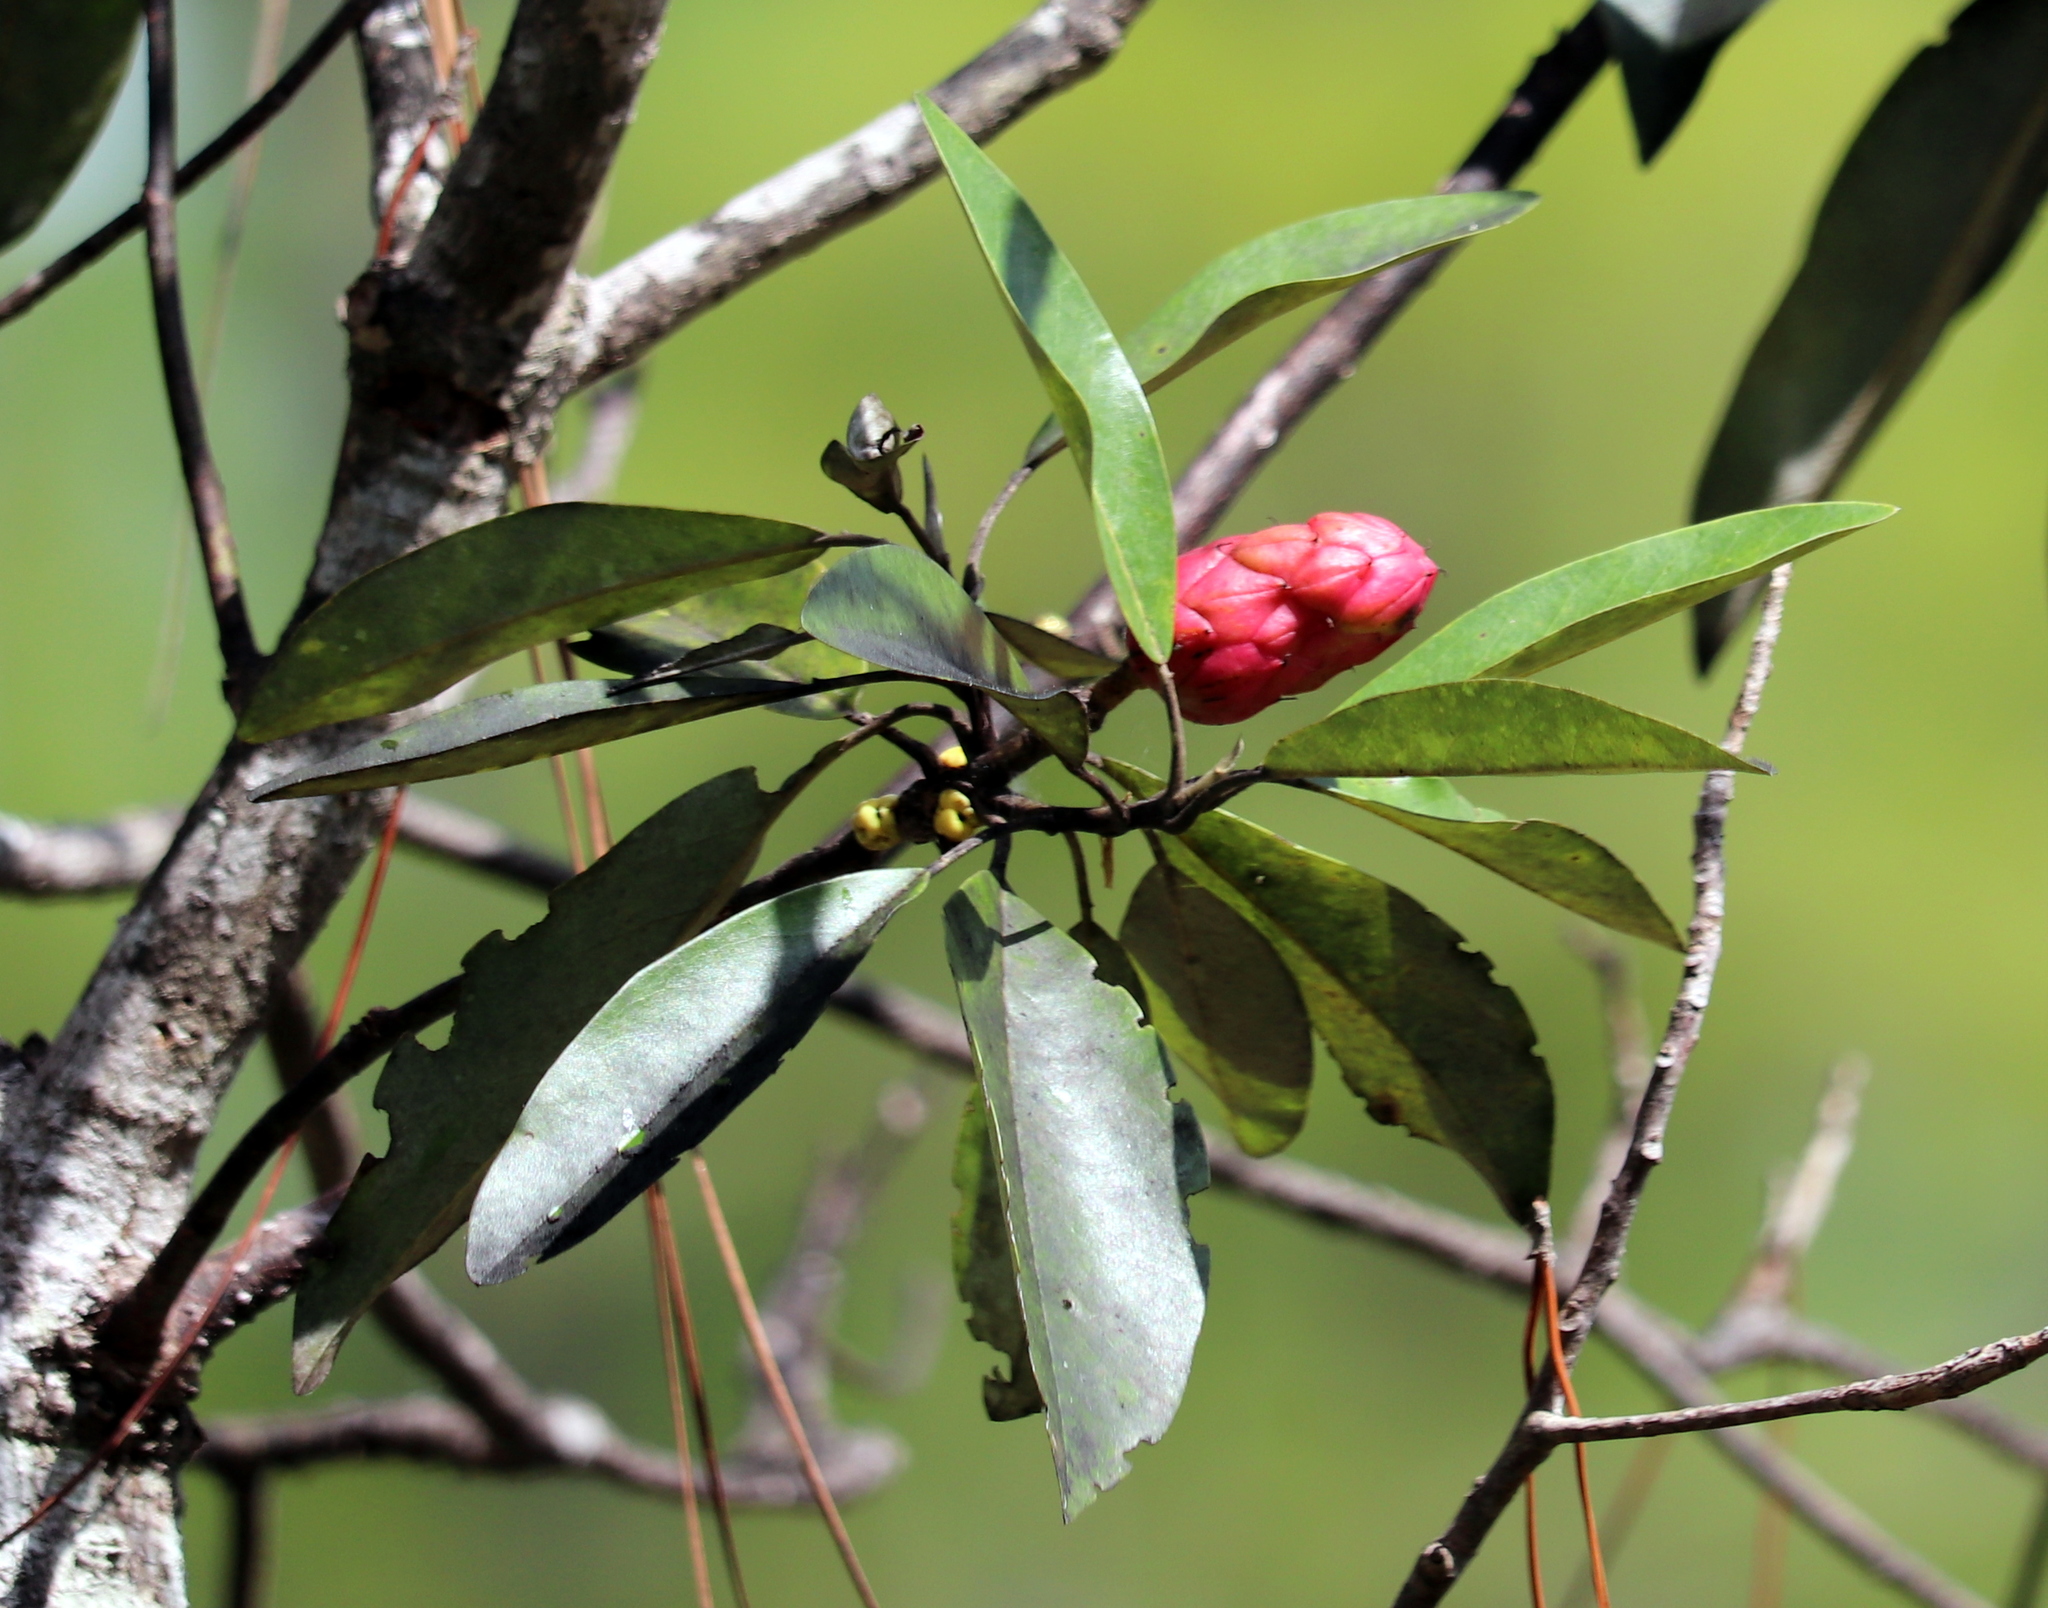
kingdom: Plantae
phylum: Tracheophyta
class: Magnoliopsida
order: Magnoliales
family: Magnoliaceae
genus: Magnolia
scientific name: Magnolia virginiana
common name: Swamp bay
